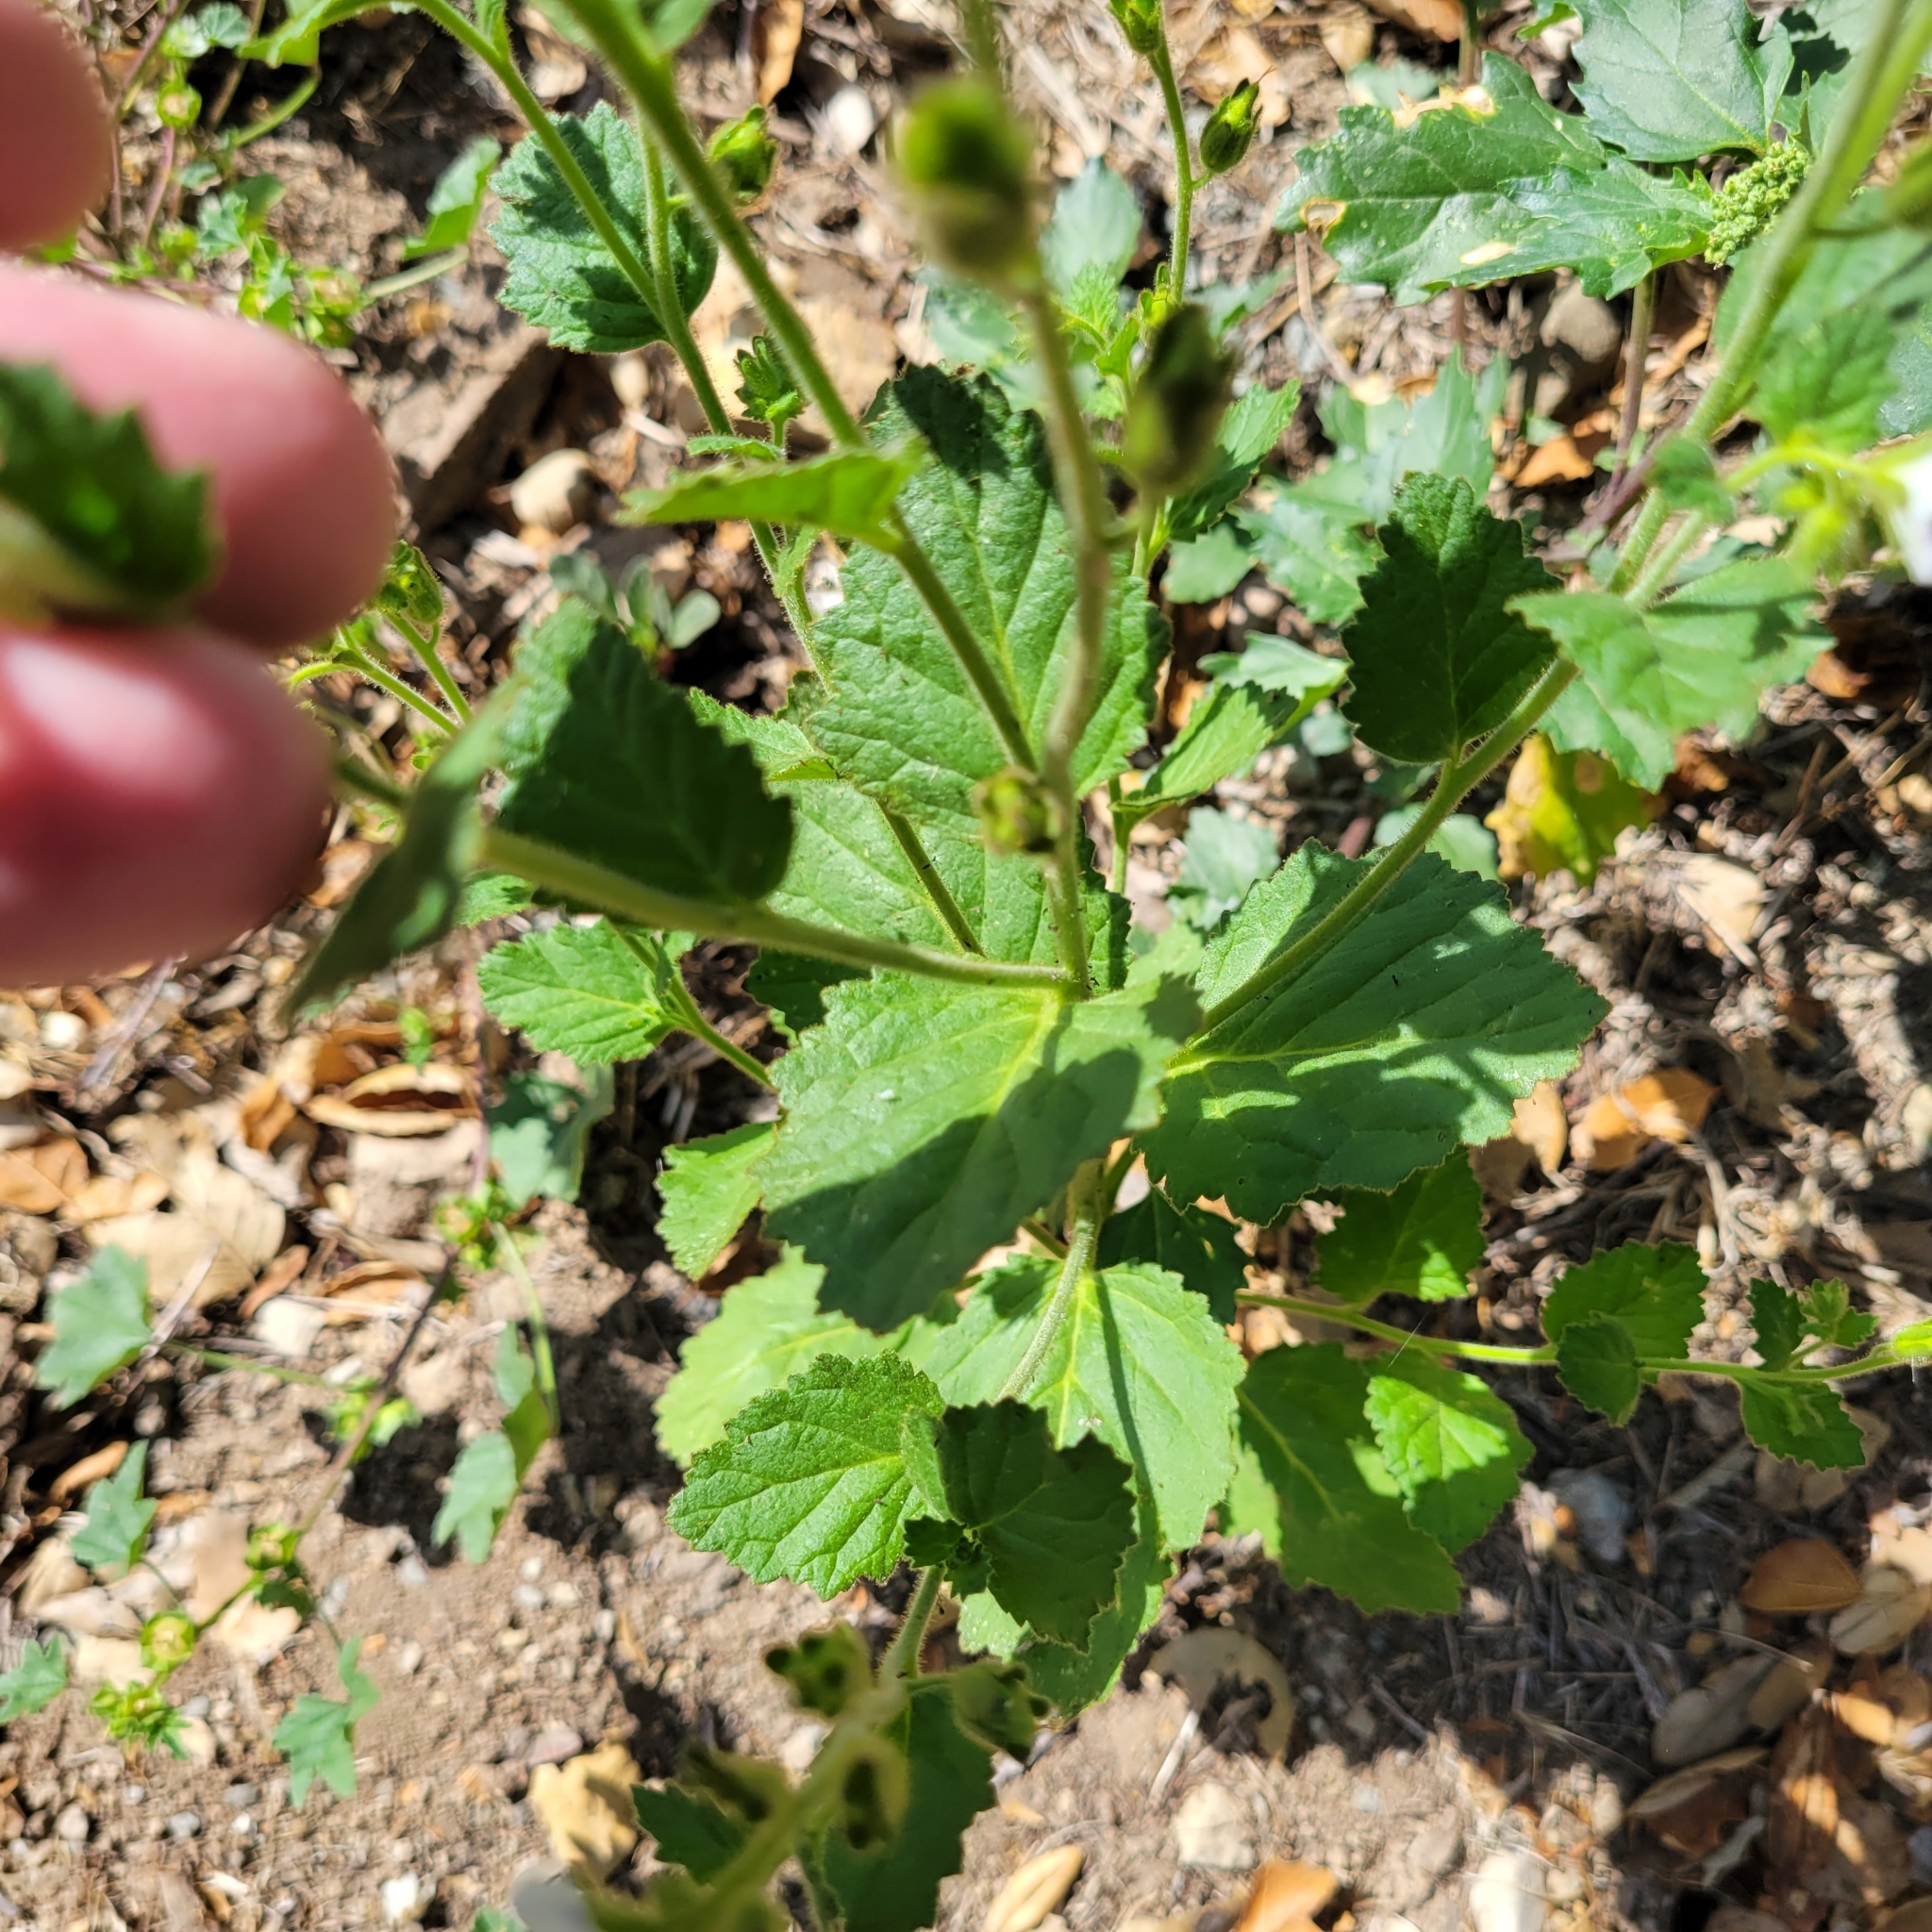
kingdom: Plantae
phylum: Tracheophyta
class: Magnoliopsida
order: Boraginales
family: Hydrophyllaceae
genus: Phacelia
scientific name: Phacelia viscida
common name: Sticky phacelia
